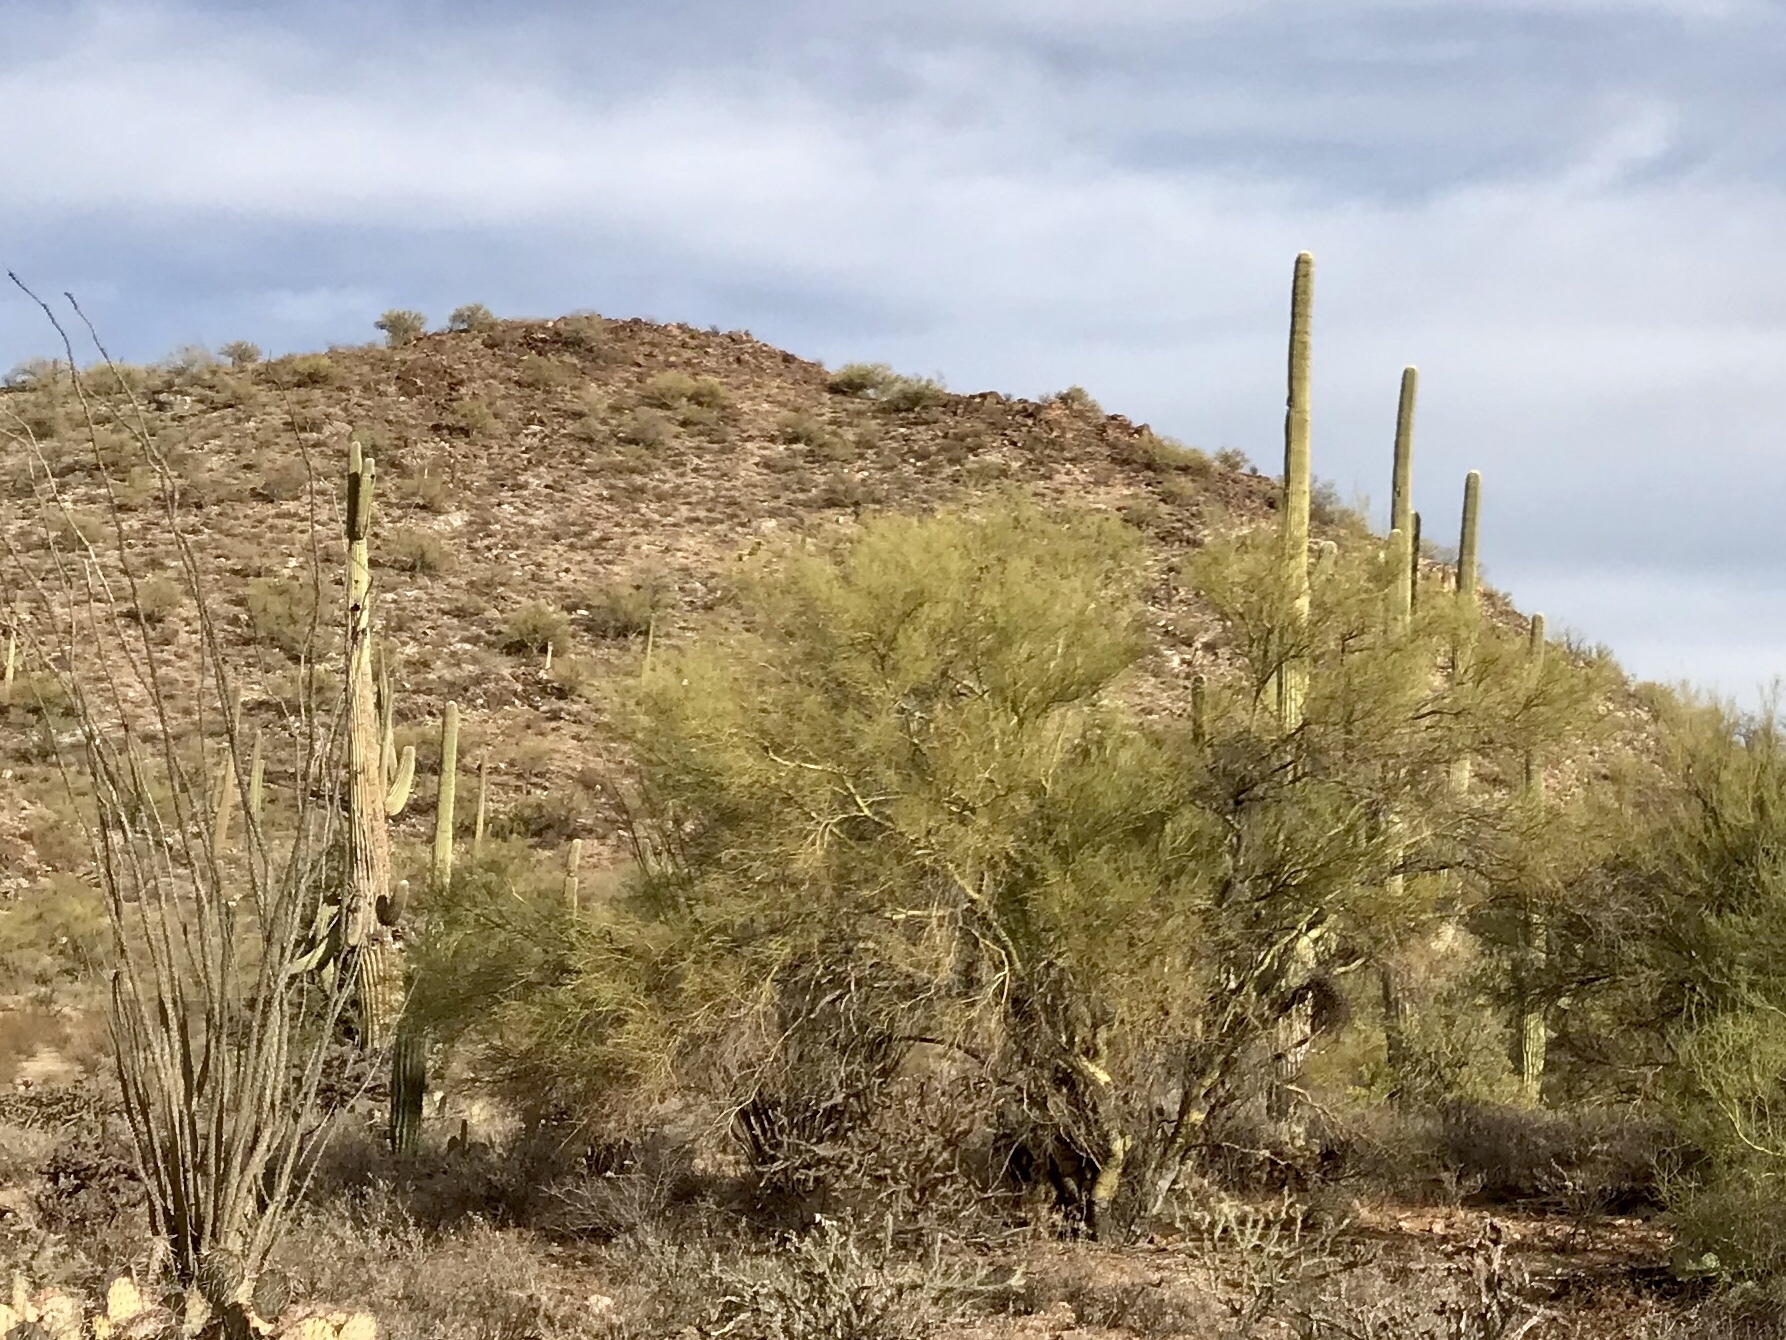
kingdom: Plantae
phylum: Tracheophyta
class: Magnoliopsida
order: Fabales
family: Fabaceae
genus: Parkinsonia
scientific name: Parkinsonia microphylla
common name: Yellow paloverde
